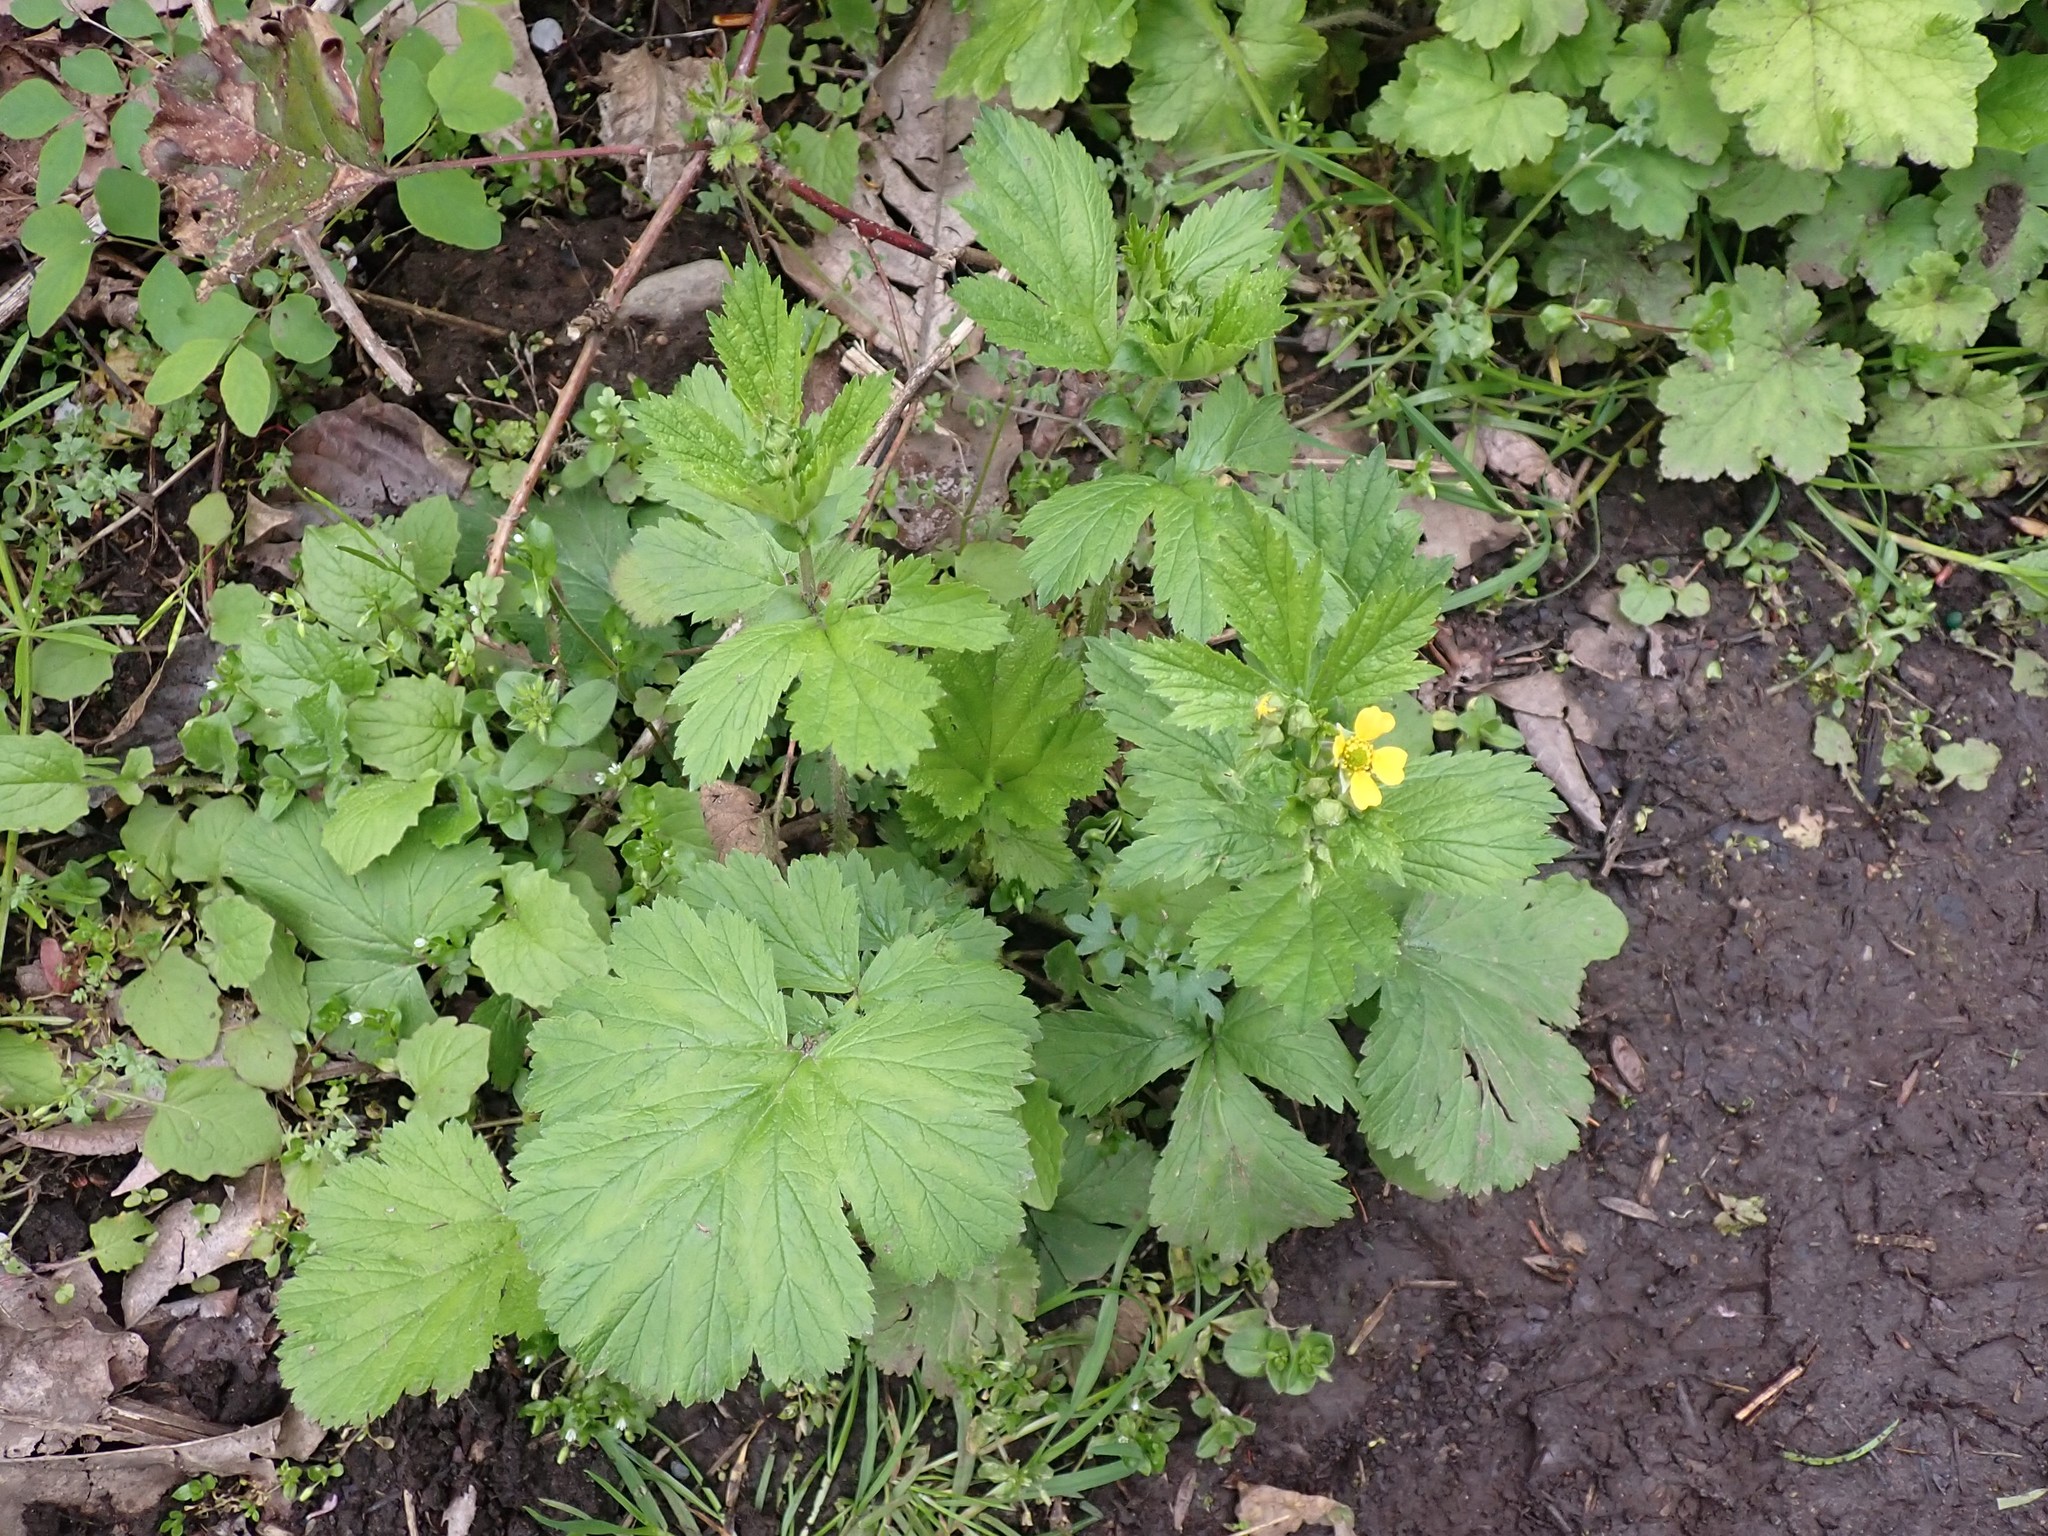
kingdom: Plantae
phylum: Tracheophyta
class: Magnoliopsida
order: Rosales
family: Rosaceae
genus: Geum
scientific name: Geum macrophyllum
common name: Large-leaved avens
